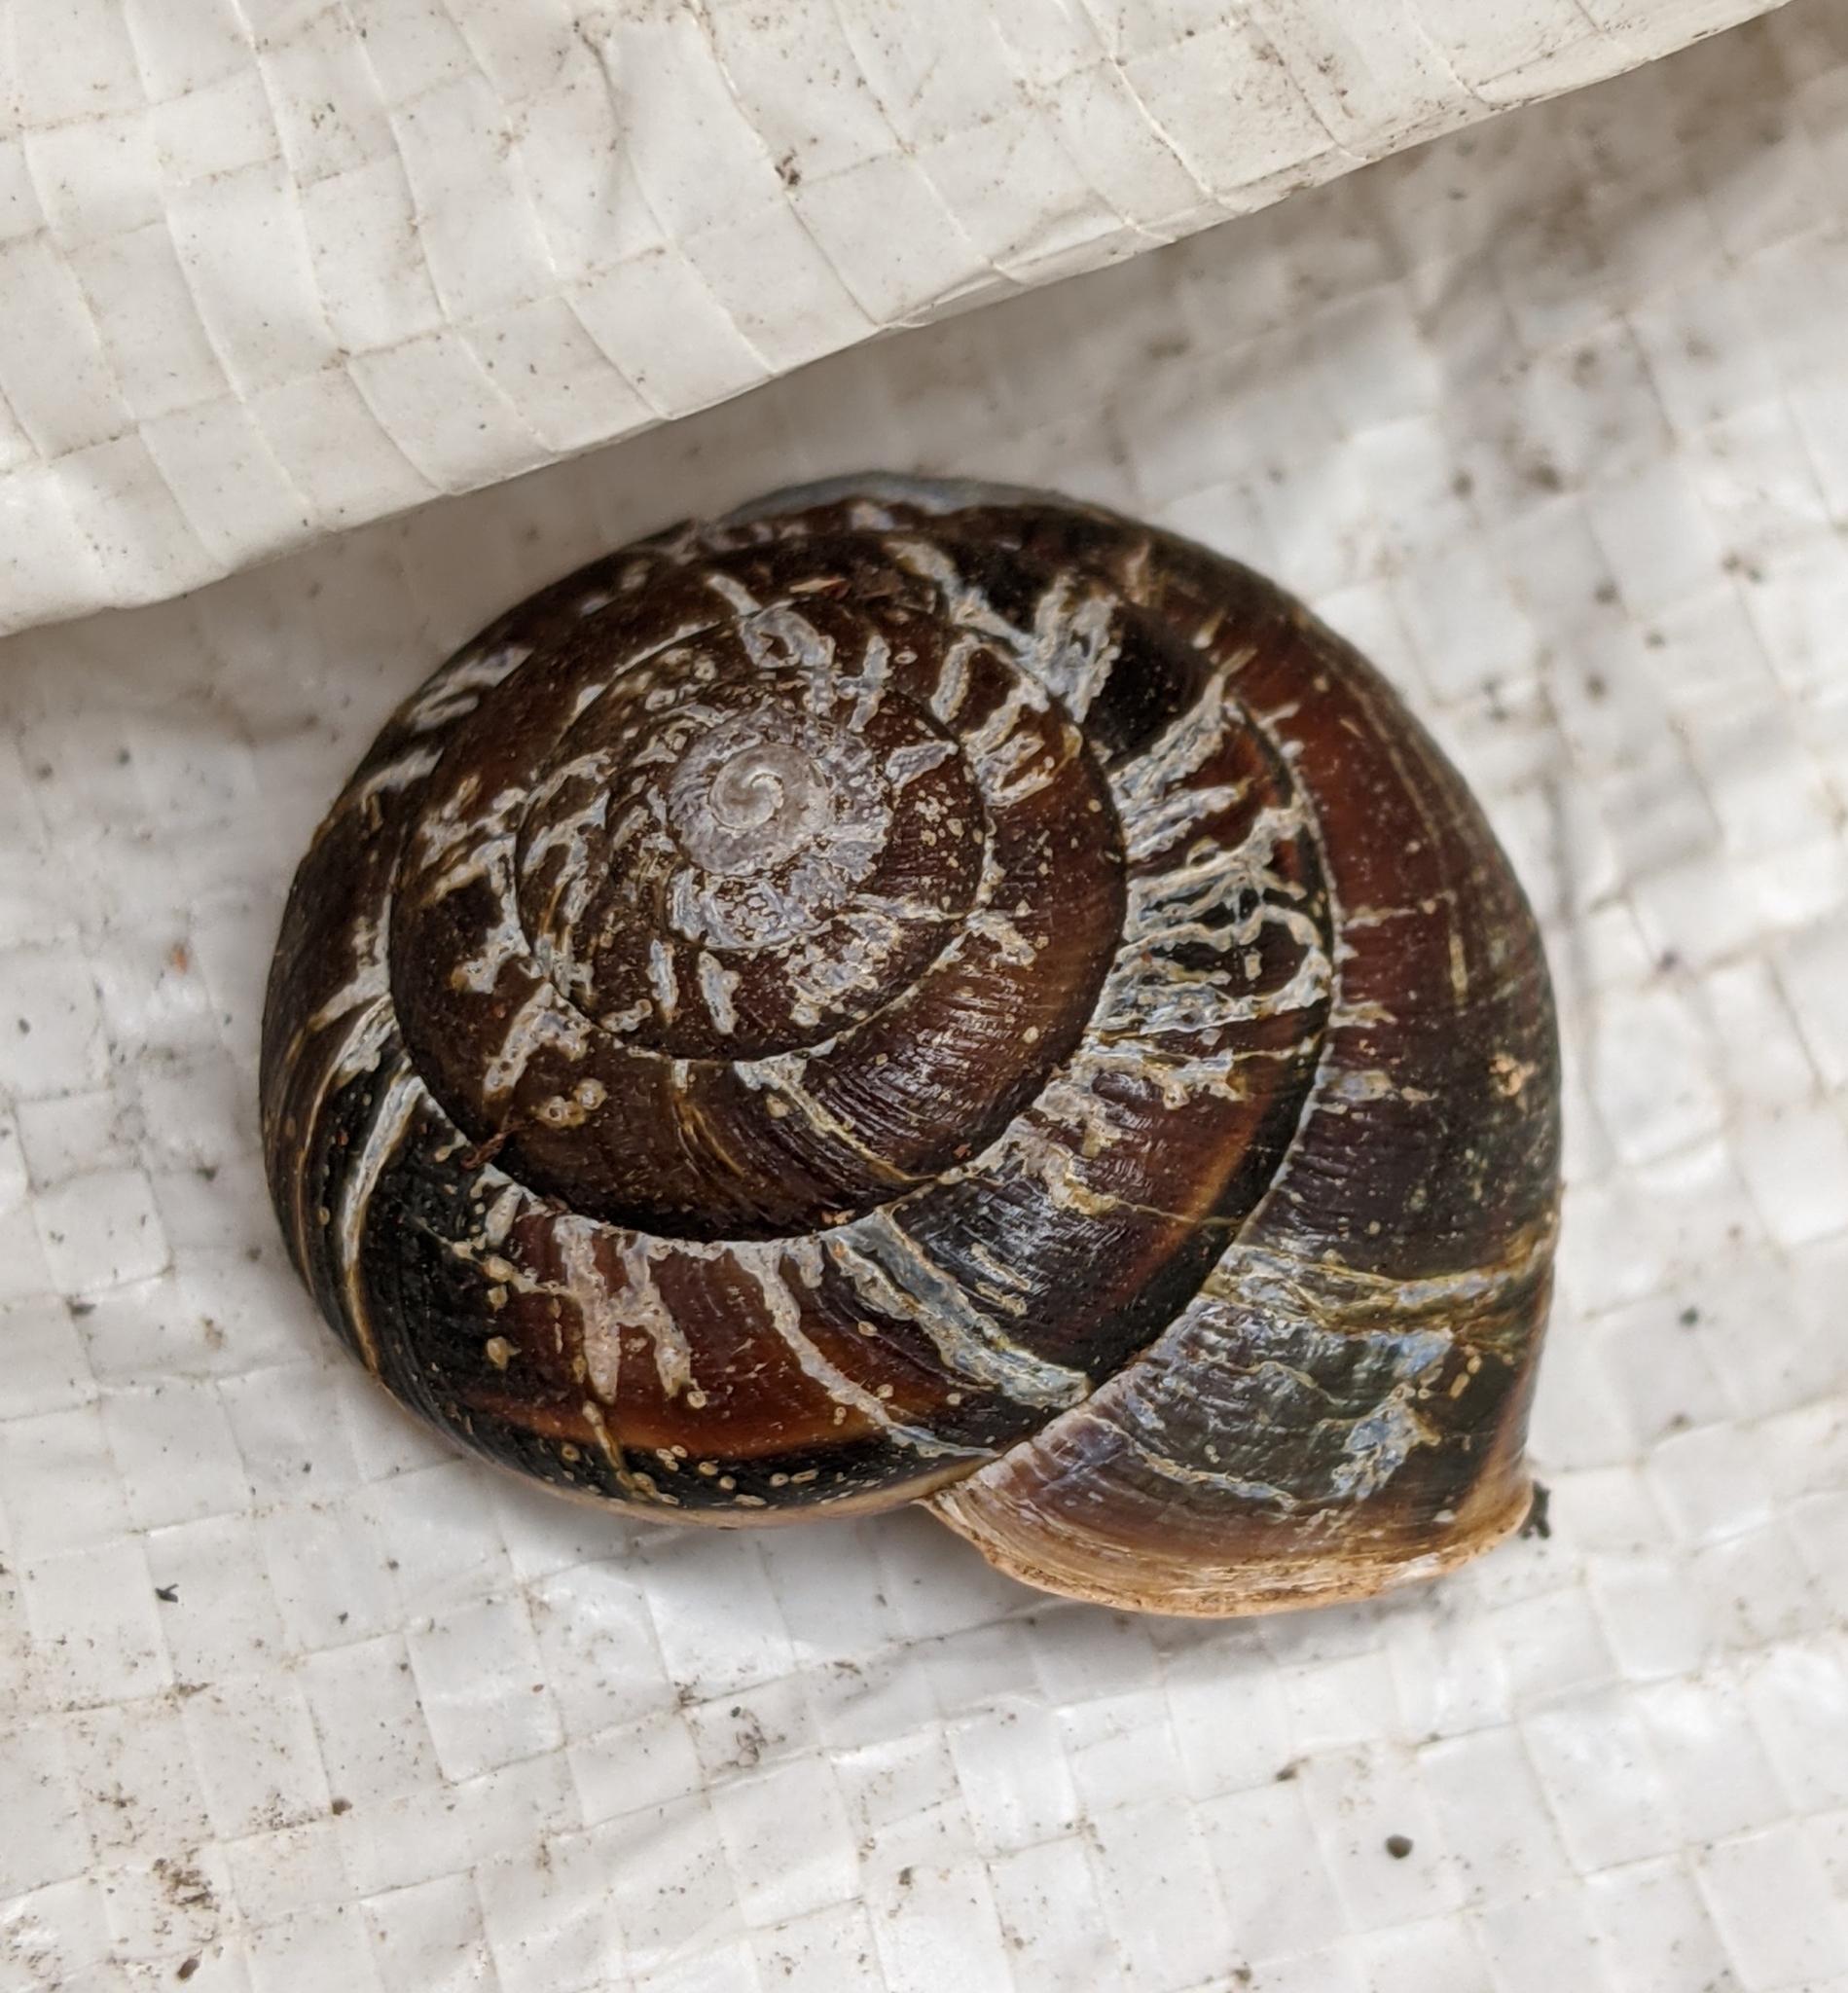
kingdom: Animalia
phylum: Mollusca
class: Gastropoda
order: Stylommatophora
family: Xanthonychidae
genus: Monadenia
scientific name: Monadenia fidelis
